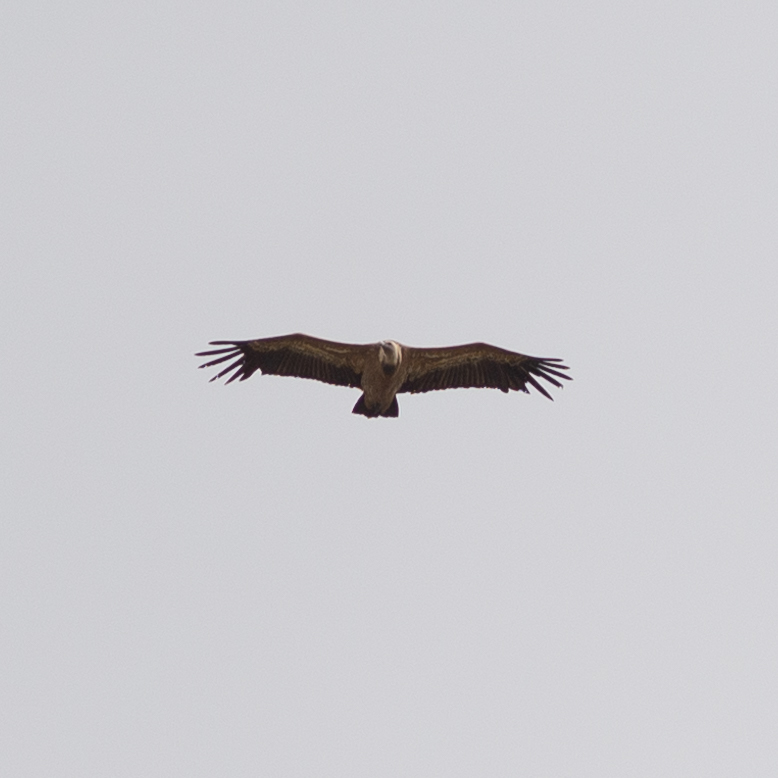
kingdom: Animalia
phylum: Chordata
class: Aves
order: Accipitriformes
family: Accipitridae
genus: Gyps
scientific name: Gyps fulvus
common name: Griffon vulture
